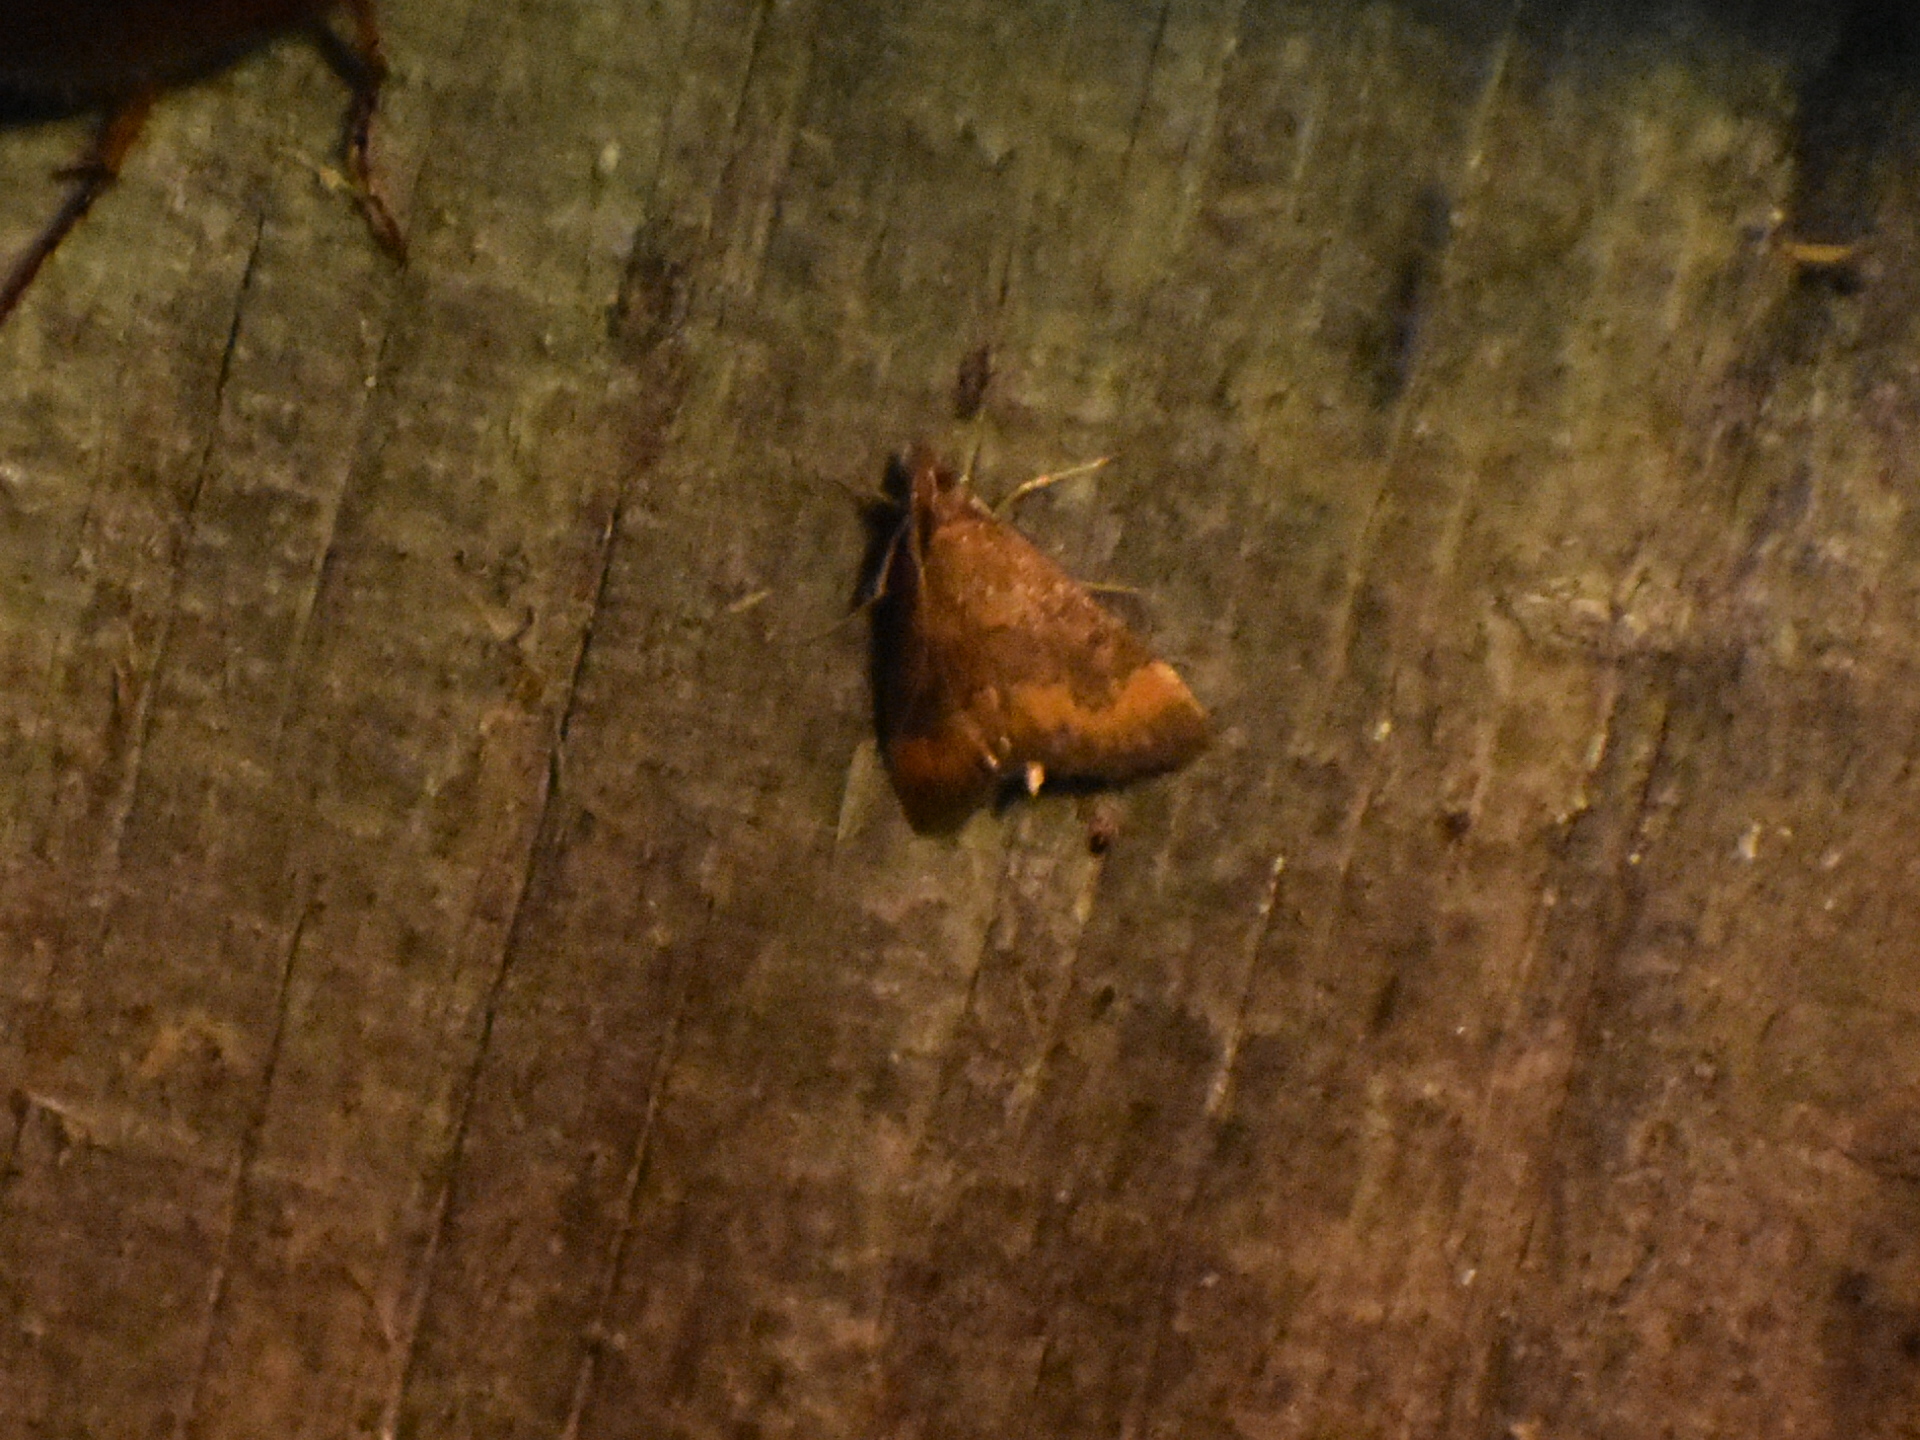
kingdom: Animalia
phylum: Arthropoda
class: Insecta
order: Lepidoptera
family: Crambidae
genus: Pyrausta
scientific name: Pyrausta rubricalis
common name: Variable reddish pyrausta
